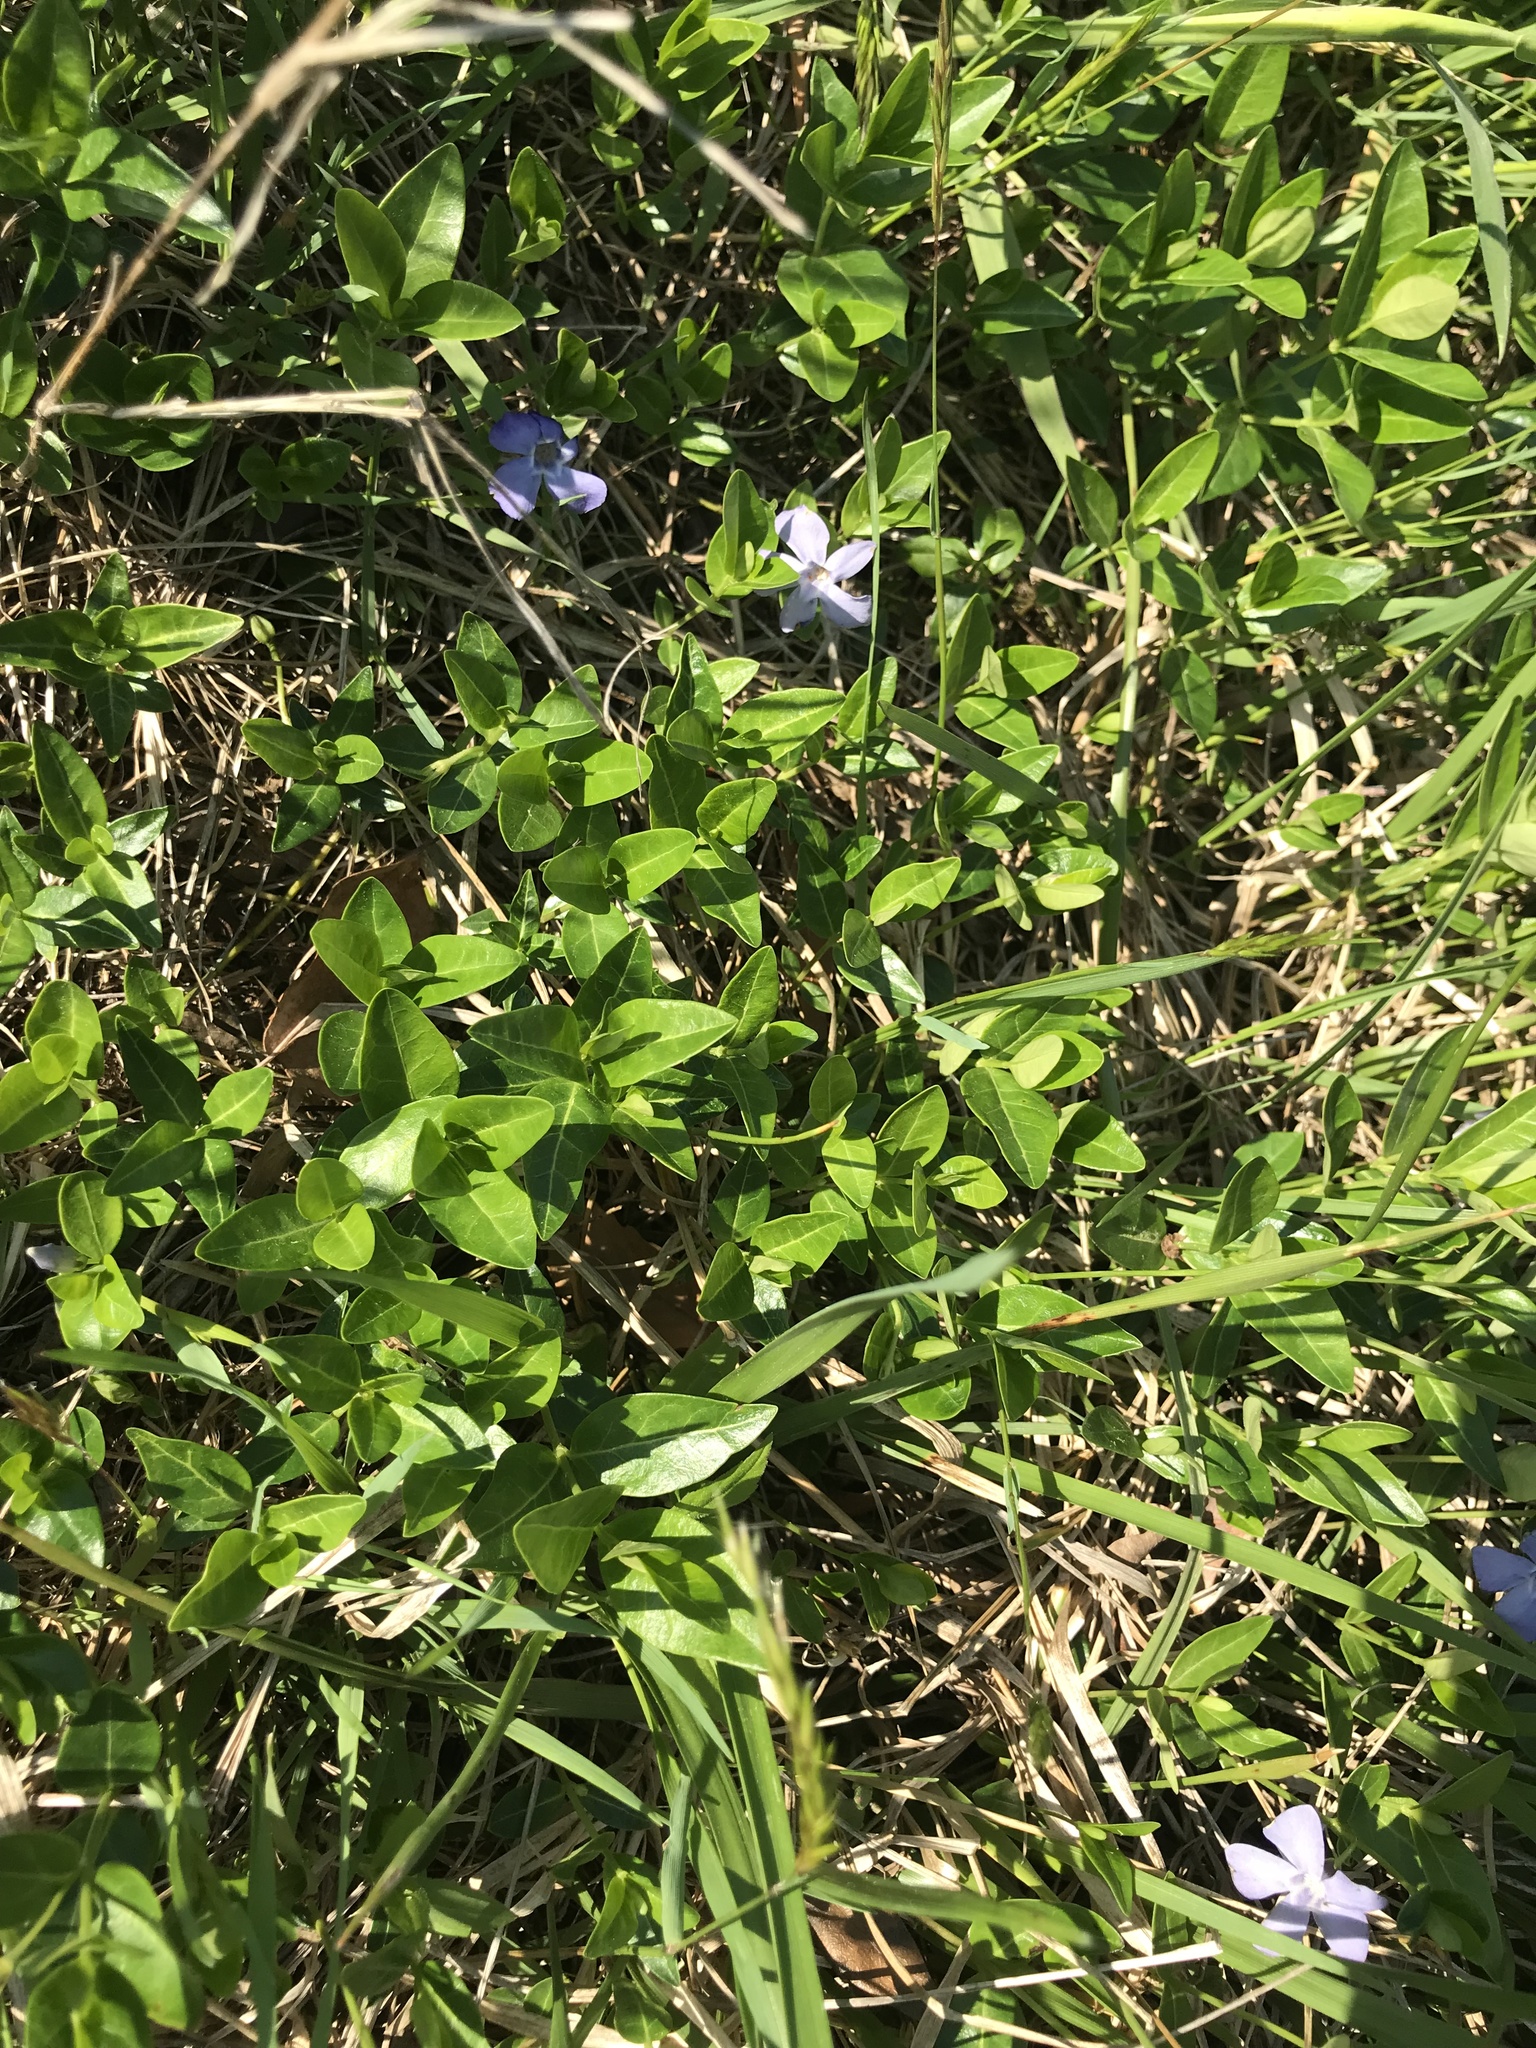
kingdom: Plantae
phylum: Tracheophyta
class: Magnoliopsida
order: Gentianales
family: Apocynaceae
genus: Vinca
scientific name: Vinca minor
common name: Lesser periwinkle
